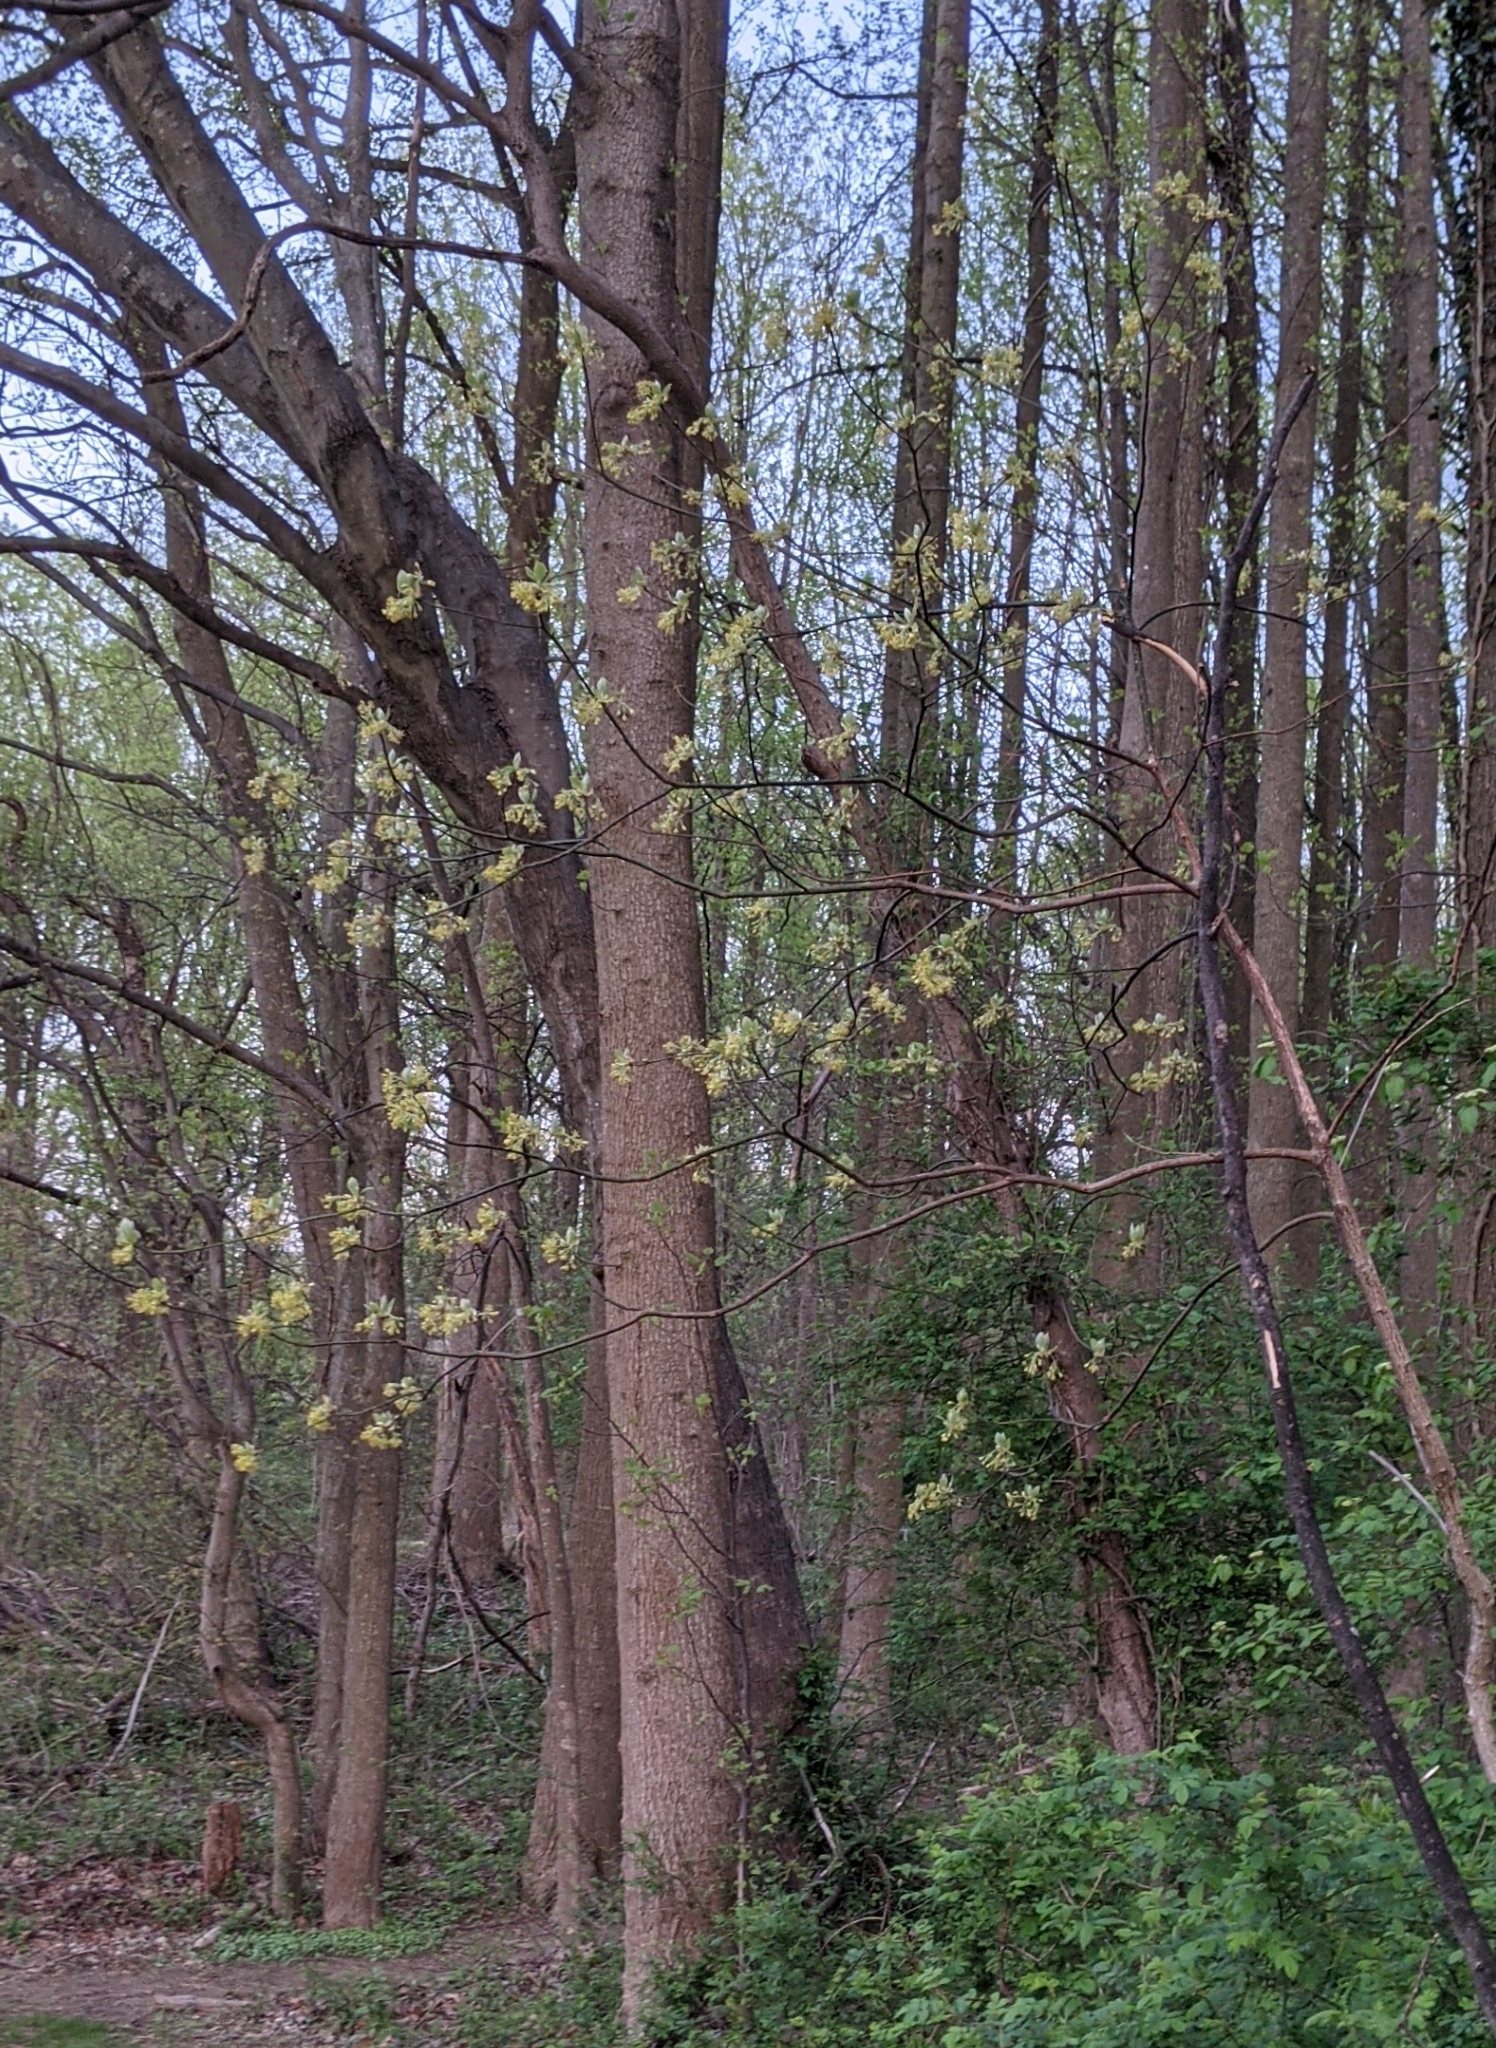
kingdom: Plantae
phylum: Tracheophyta
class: Magnoliopsida
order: Laurales
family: Lauraceae
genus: Sassafras
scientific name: Sassafras albidum
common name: Sassafras
